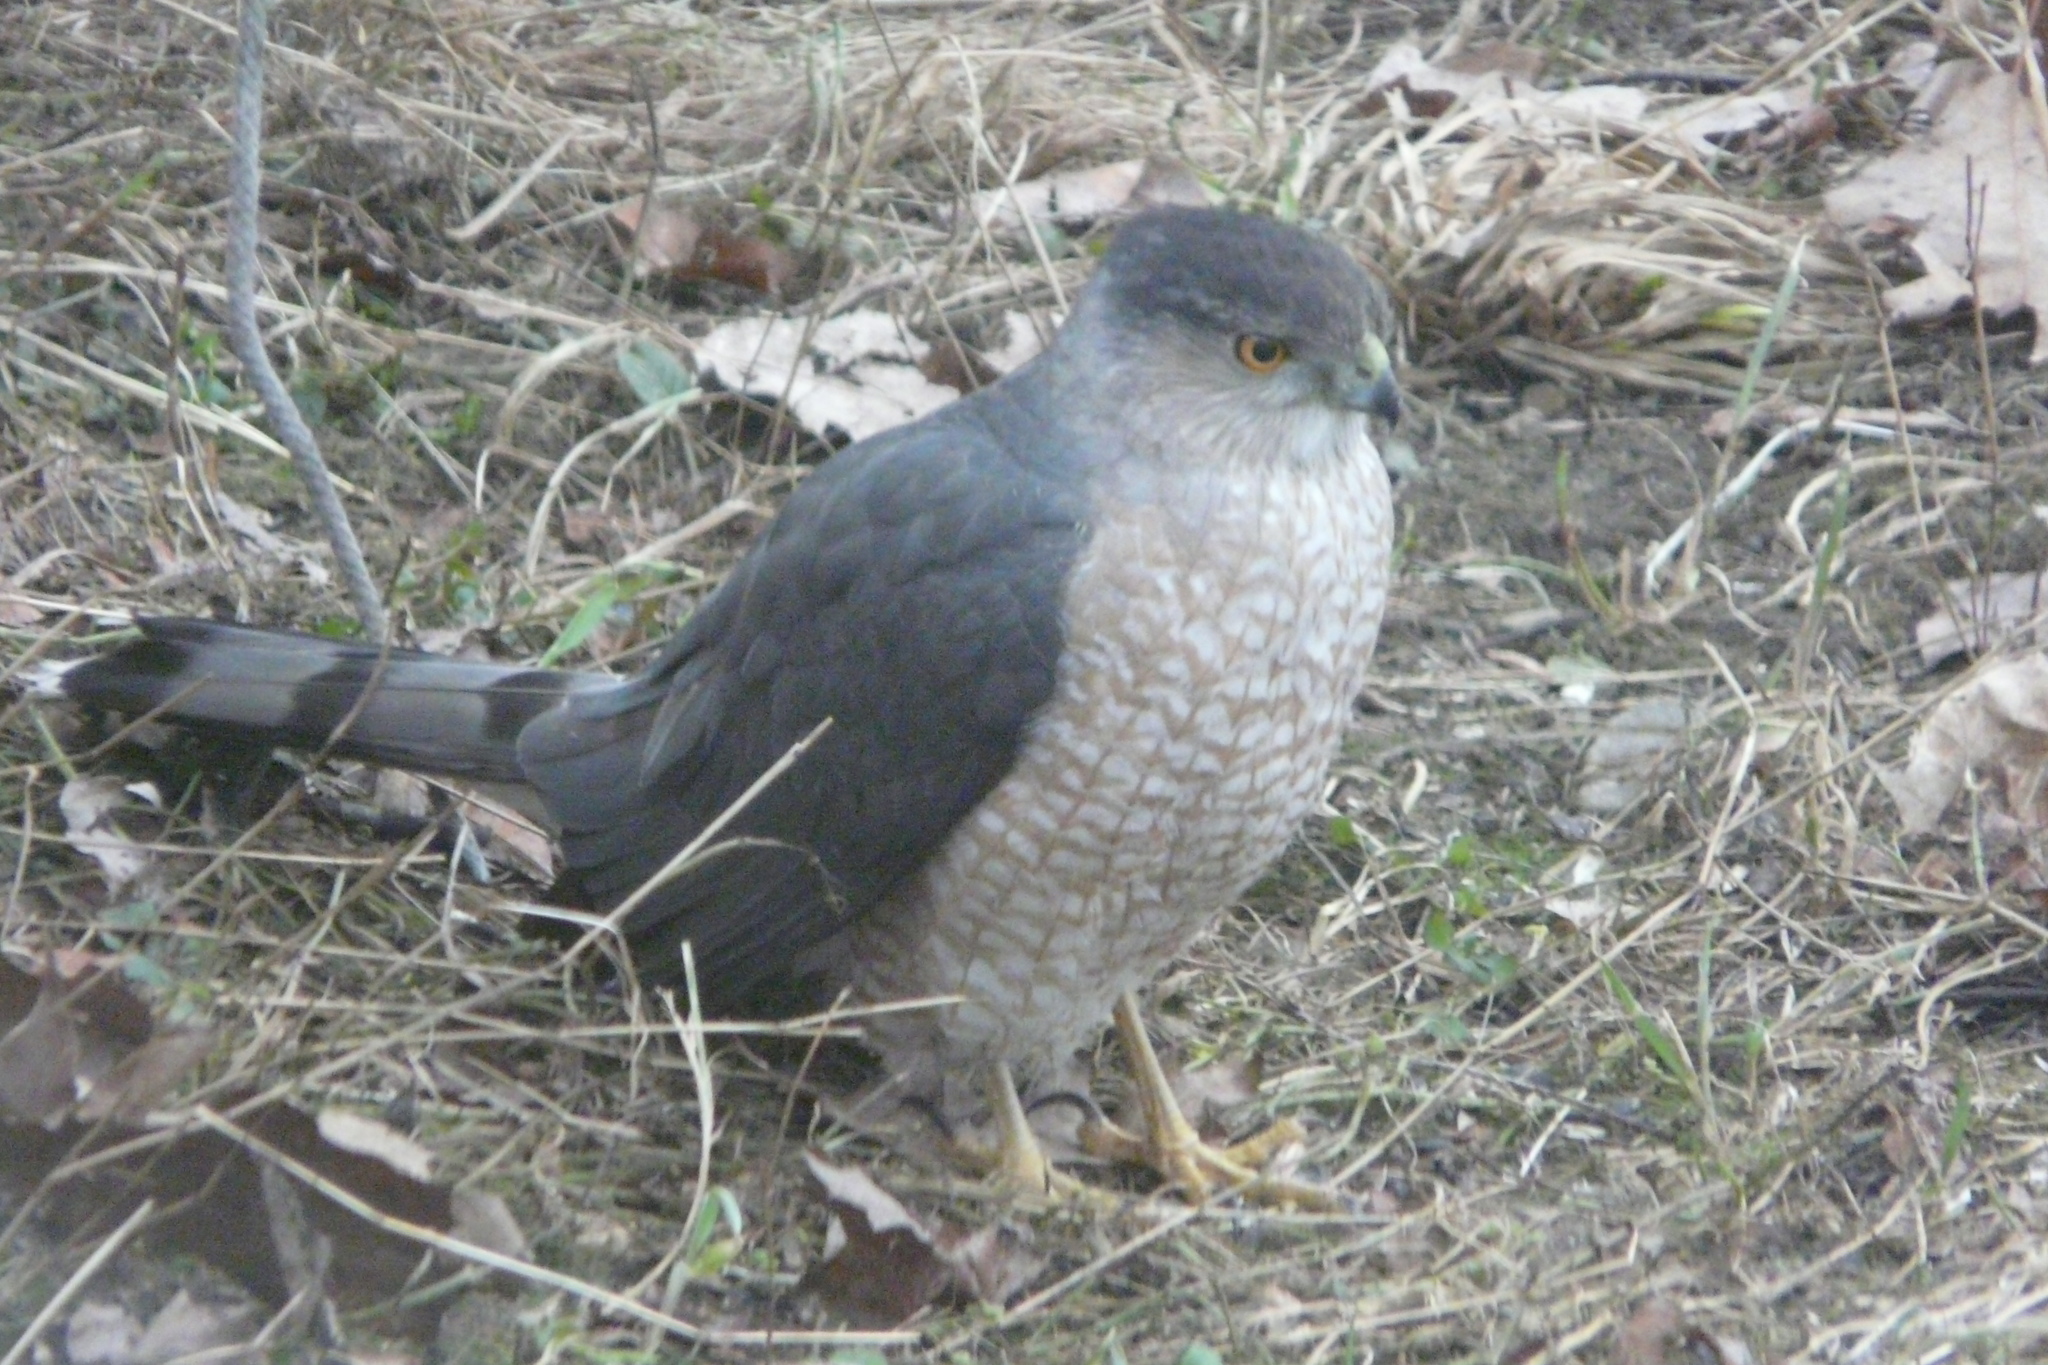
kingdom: Animalia
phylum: Chordata
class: Aves
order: Accipitriformes
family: Accipitridae
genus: Accipiter
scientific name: Accipiter cooperii
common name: Cooper's hawk
